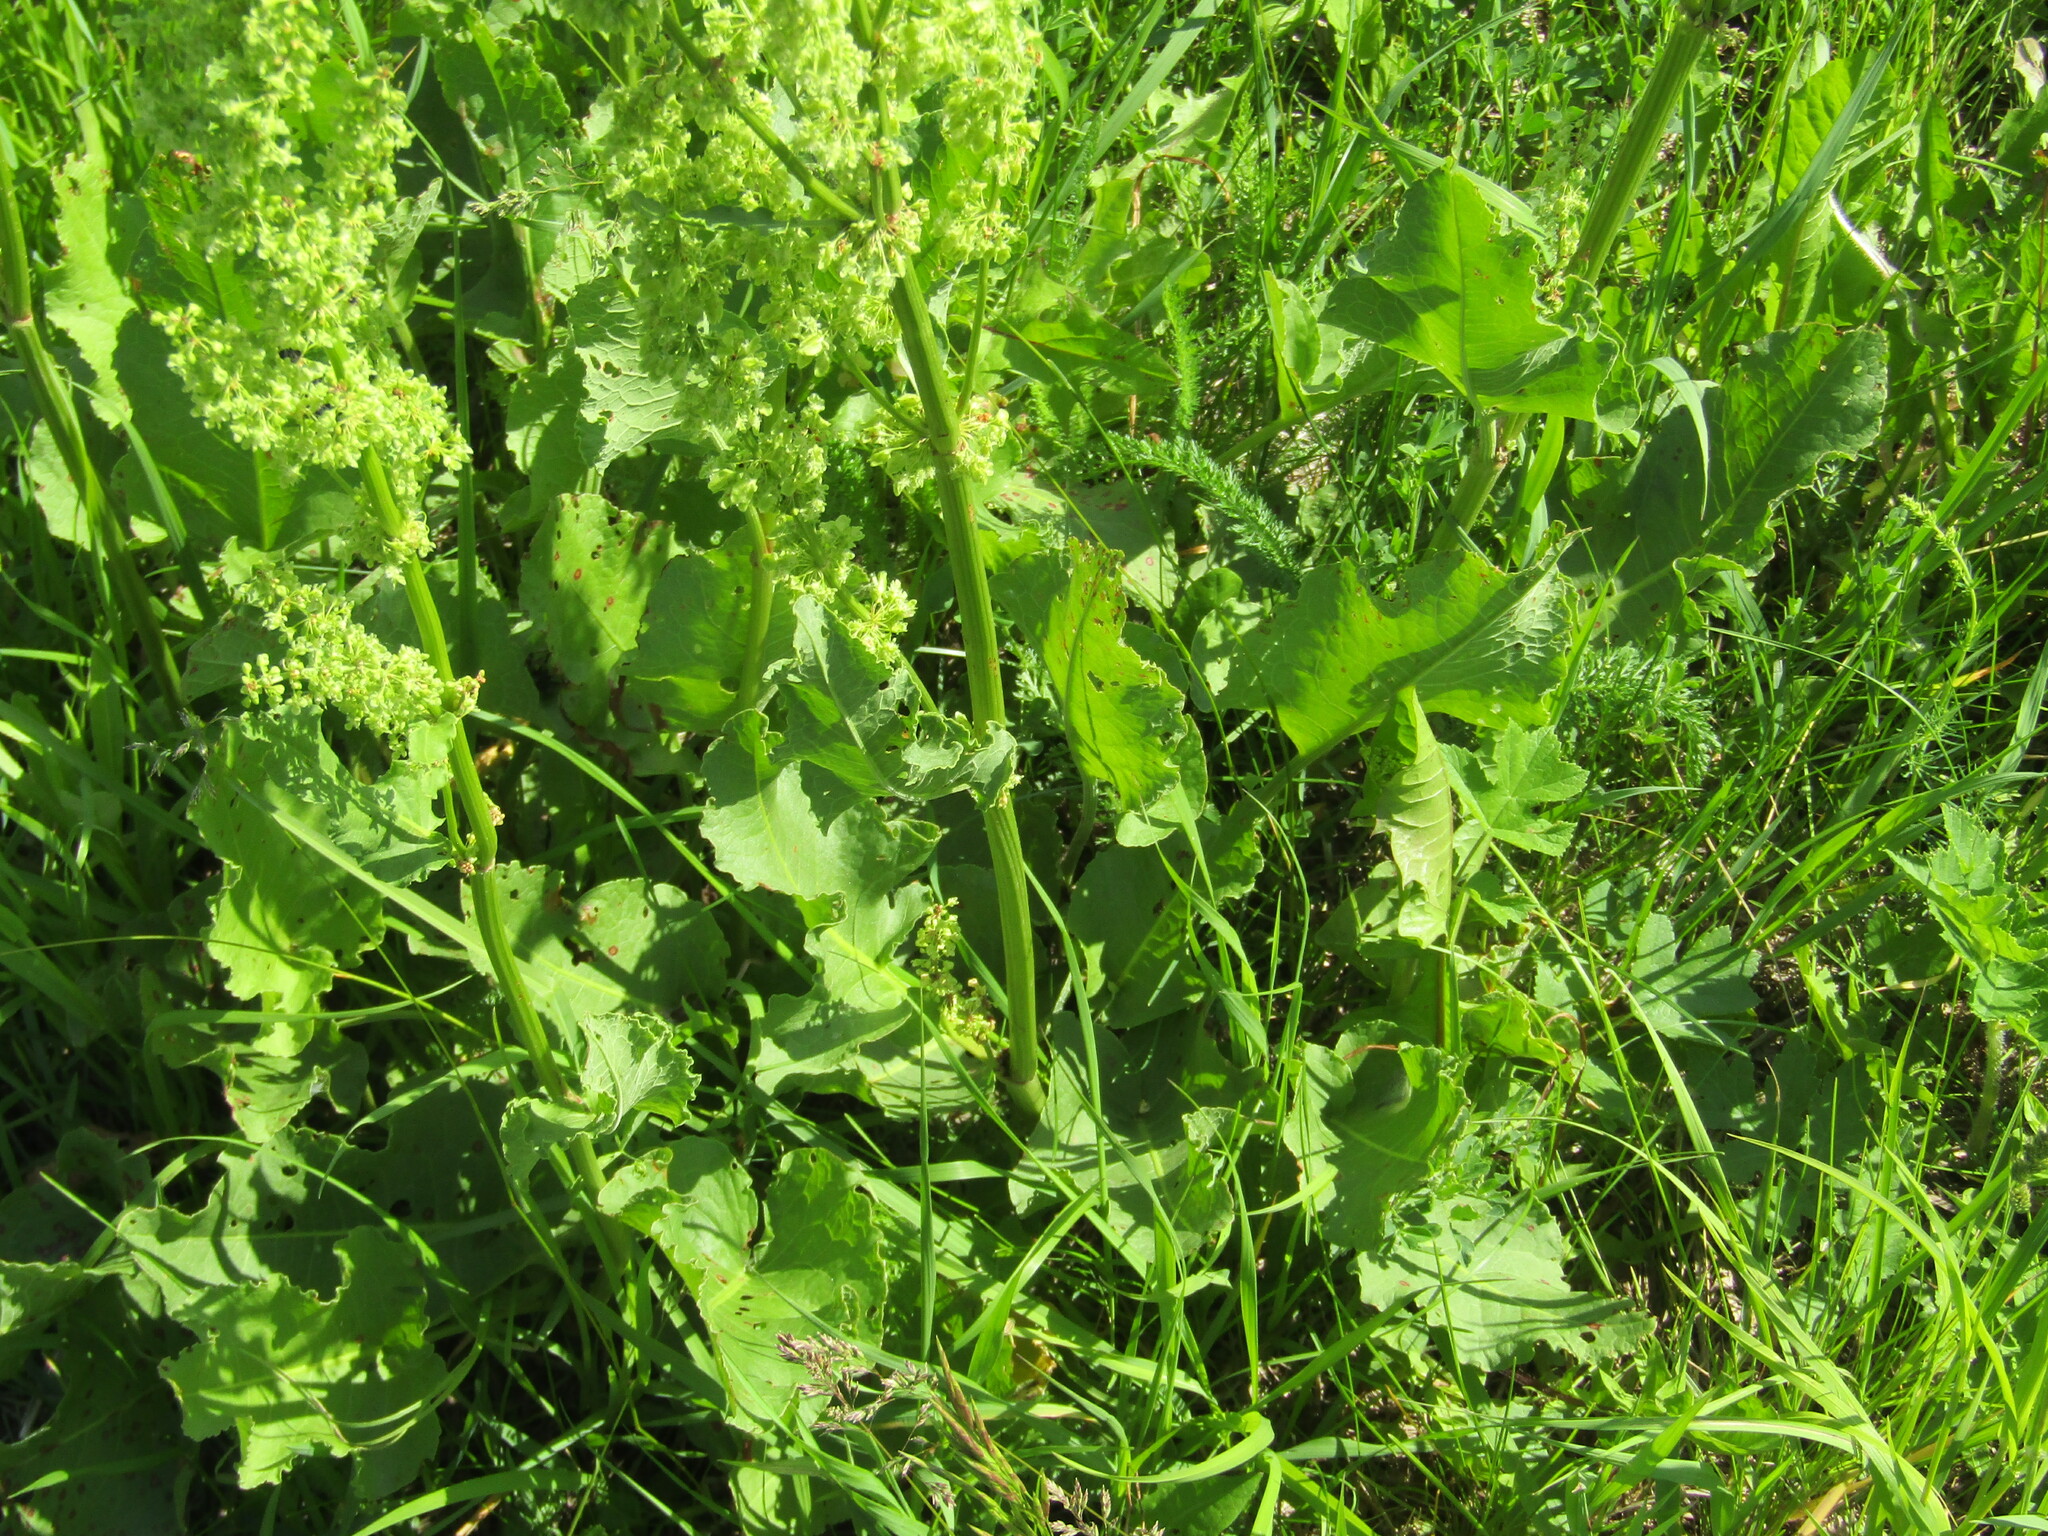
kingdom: Plantae
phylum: Tracheophyta
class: Magnoliopsida
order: Caryophyllales
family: Polygonaceae
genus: Rumex
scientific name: Rumex confertus
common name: Russian dock
